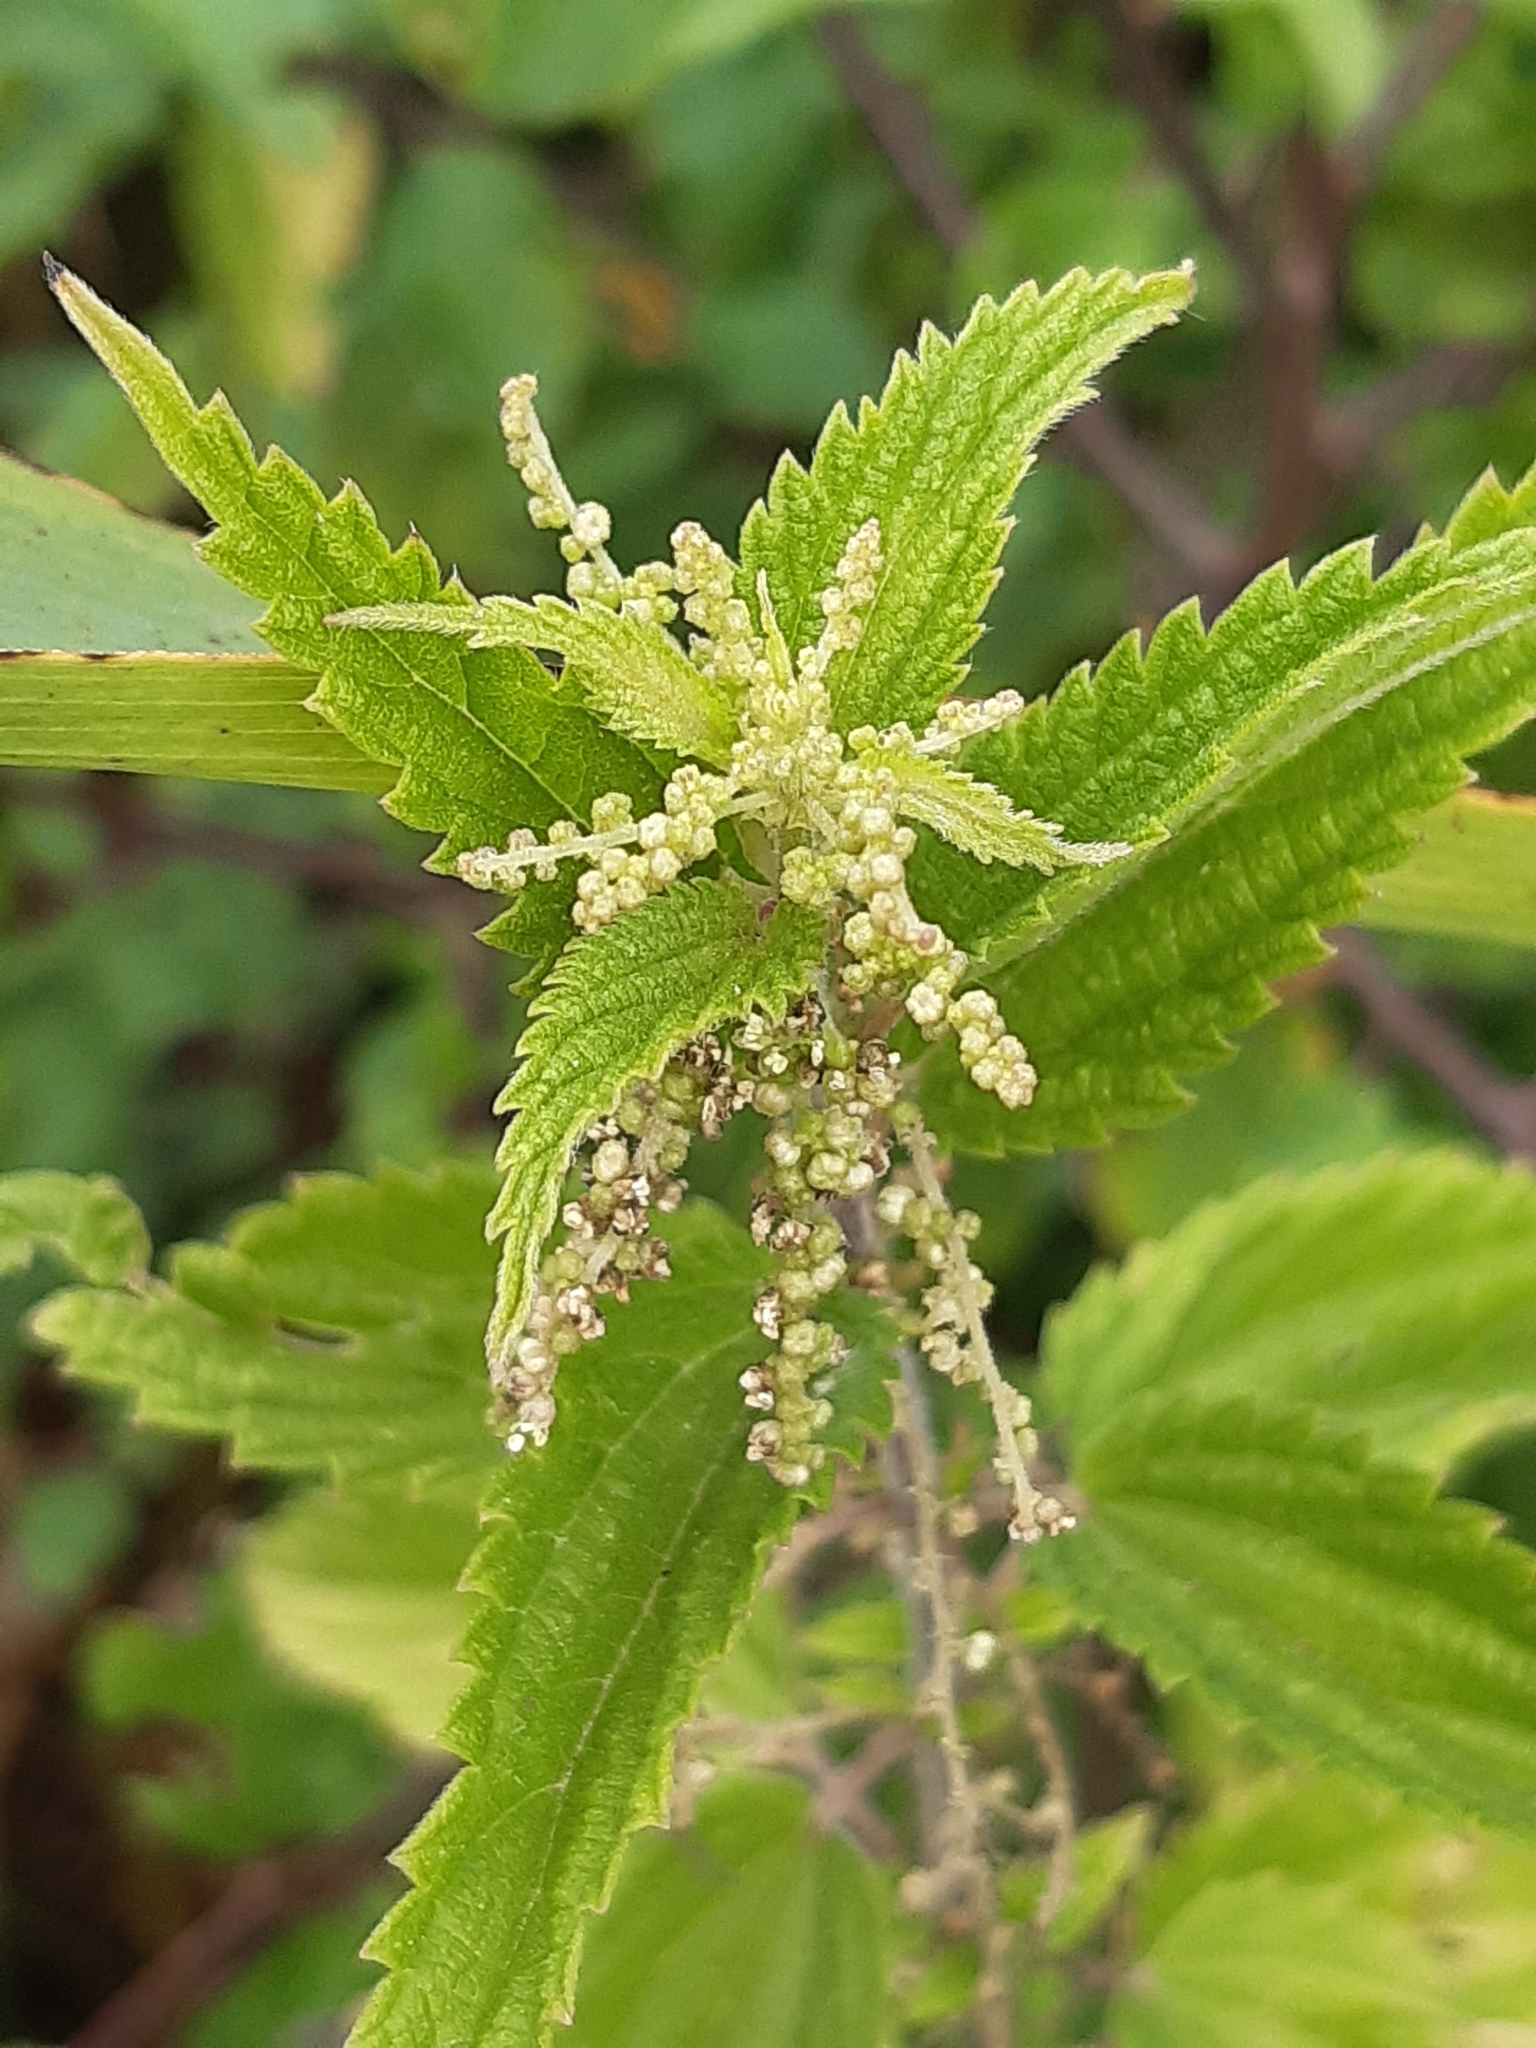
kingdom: Plantae
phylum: Tracheophyta
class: Magnoliopsida
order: Rosales
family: Urticaceae
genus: Urtica
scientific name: Urtica dioica
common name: Common nettle
